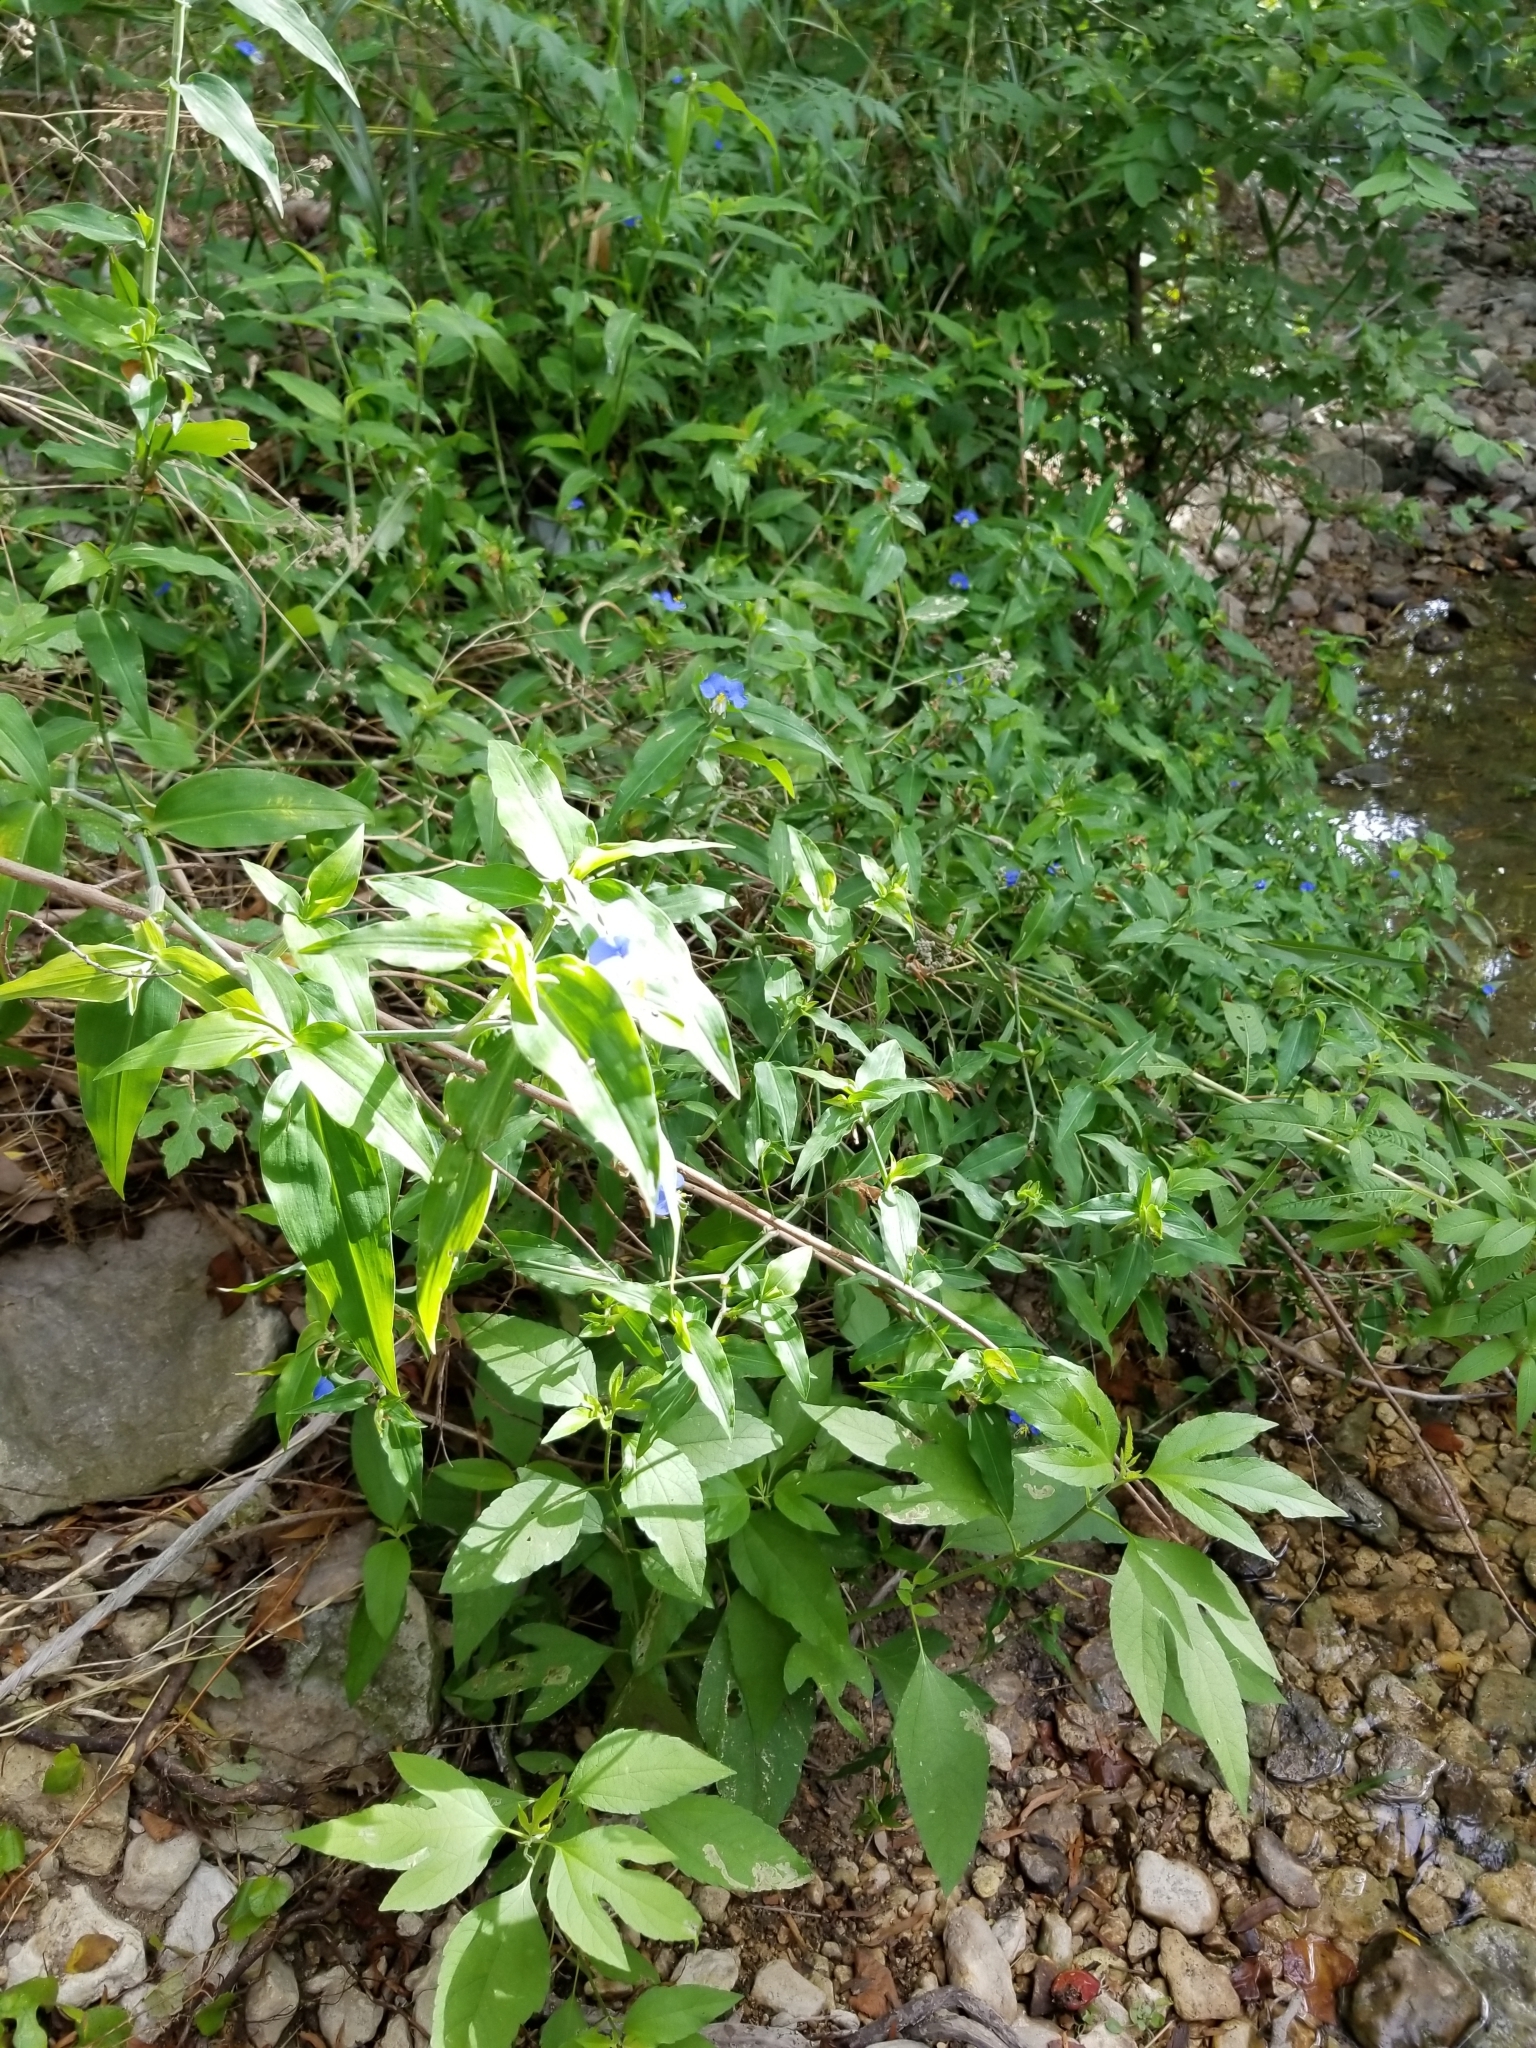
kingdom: Plantae
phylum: Tracheophyta
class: Liliopsida
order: Commelinales
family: Commelinaceae
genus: Commelina
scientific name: Commelina erecta
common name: Blousel blommetjie
